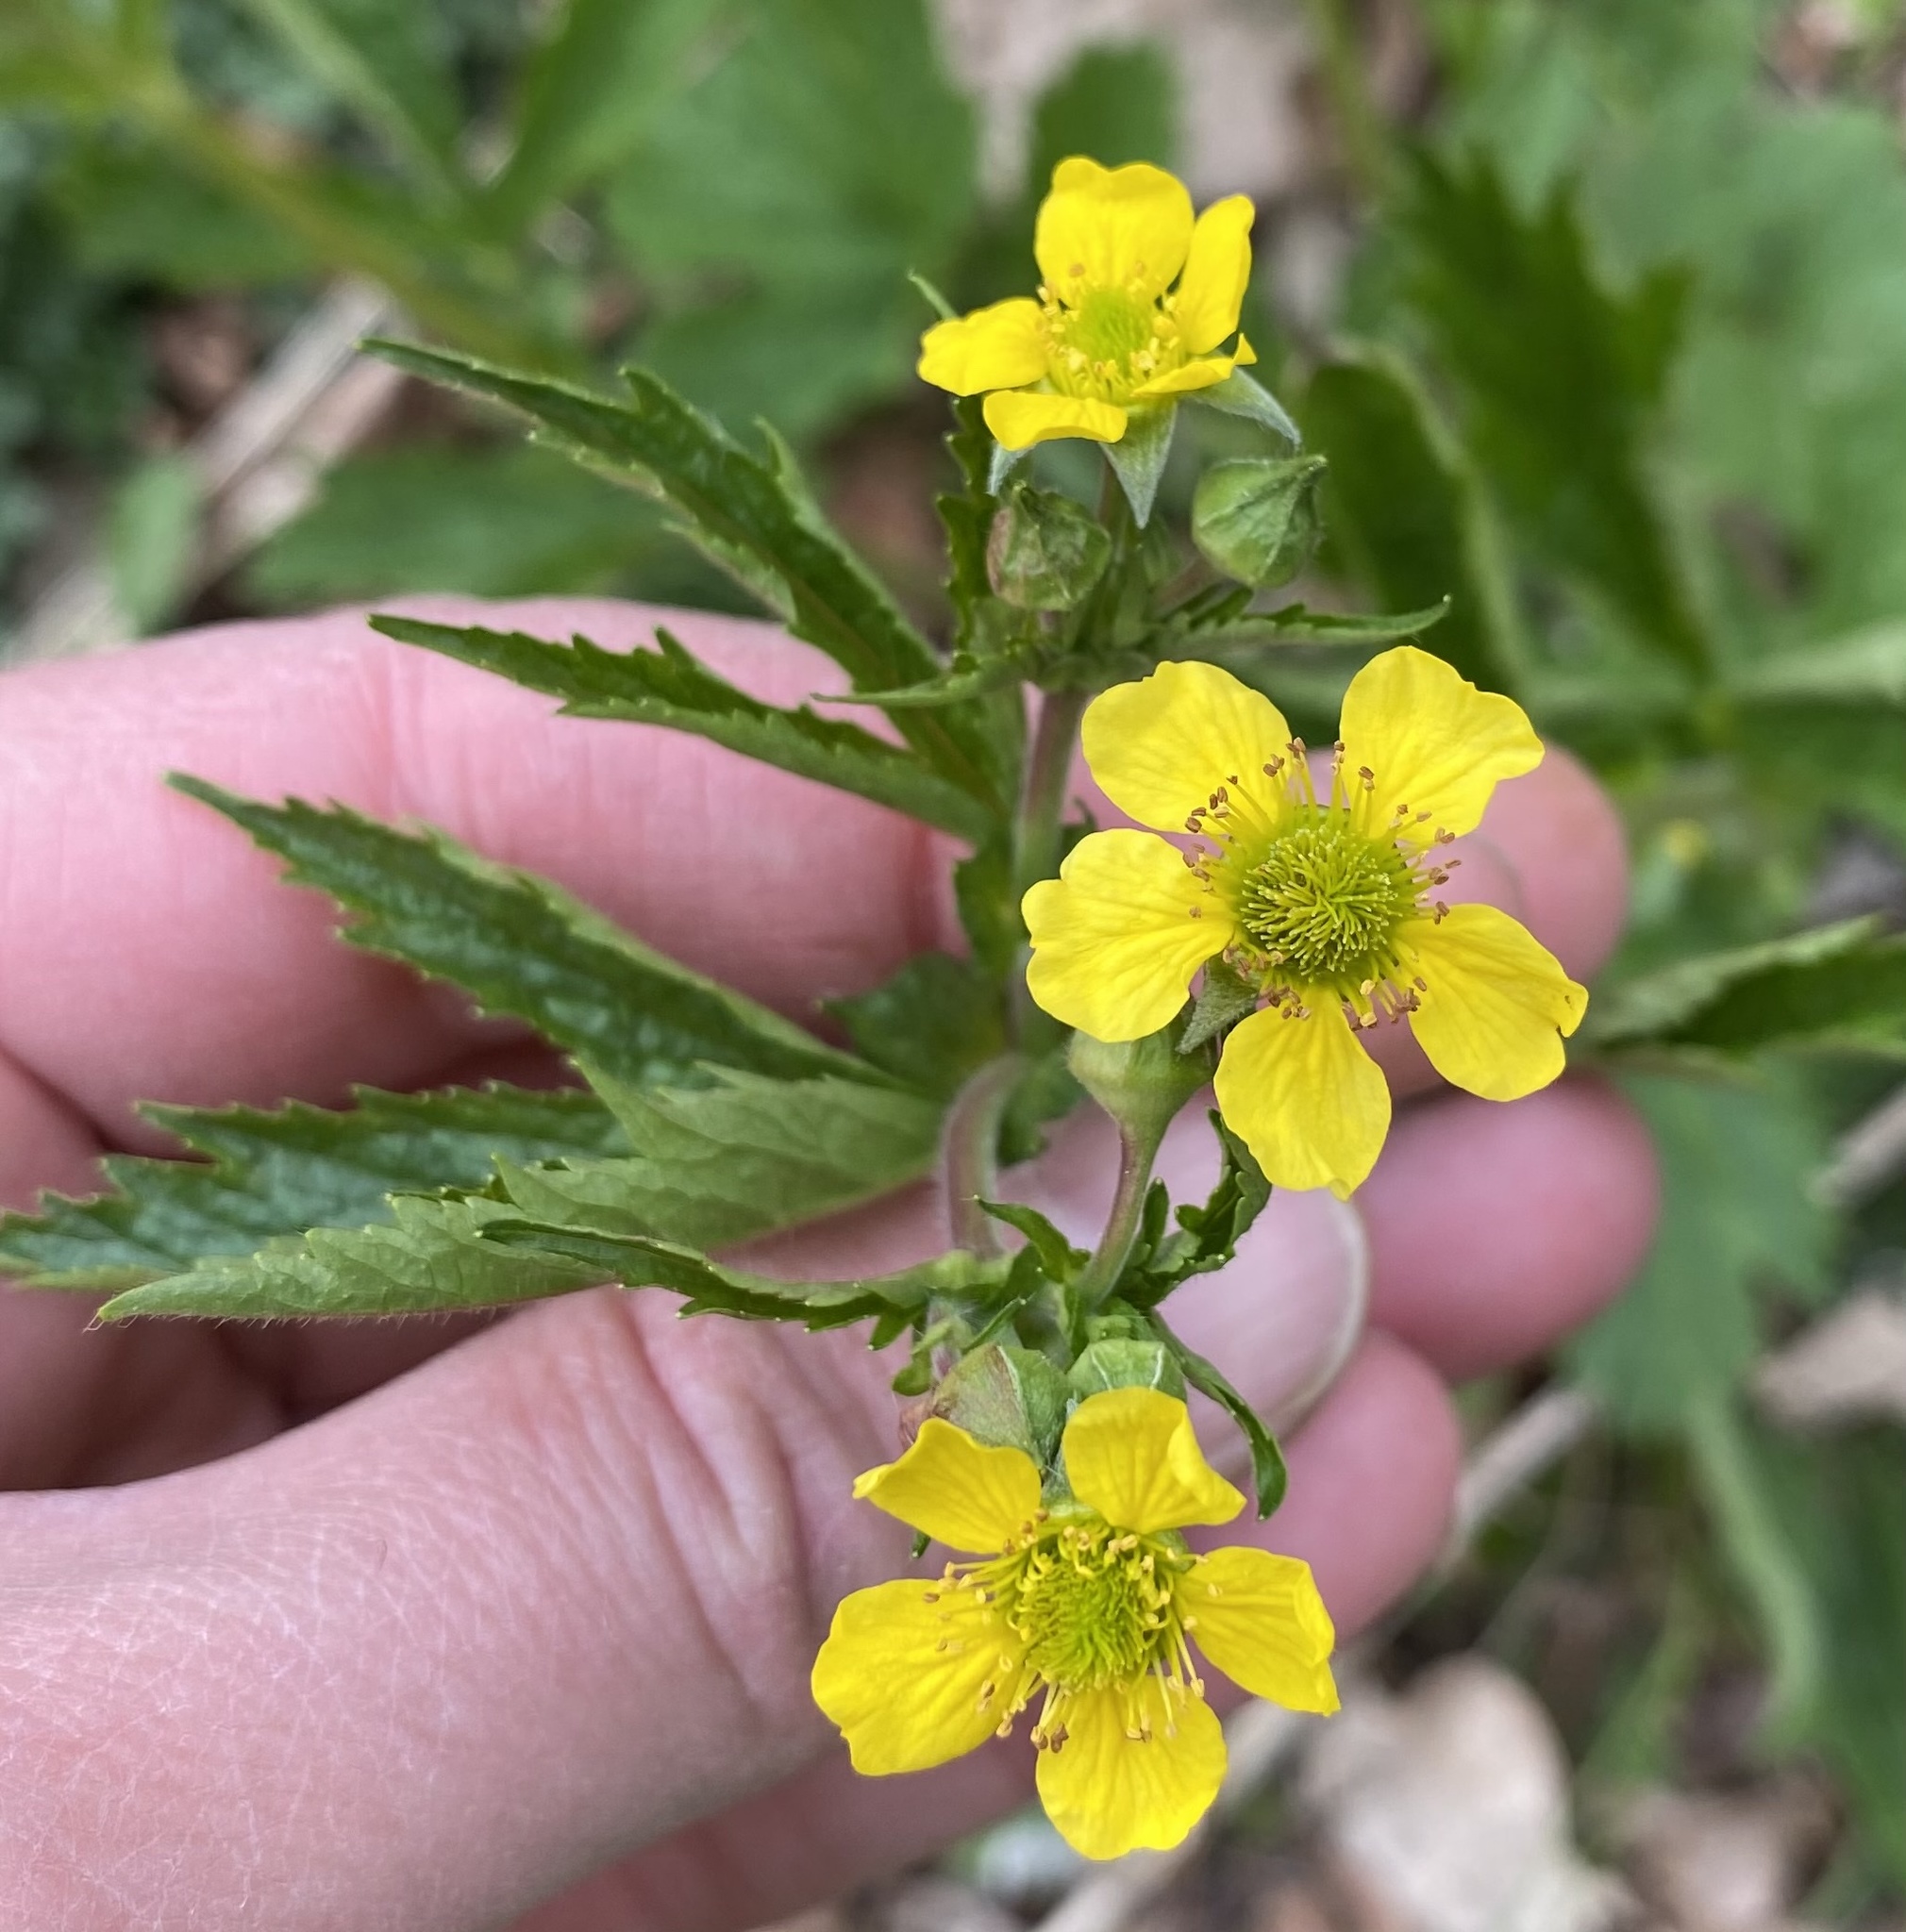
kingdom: Plantae
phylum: Tracheophyta
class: Magnoliopsida
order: Rosales
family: Rosaceae
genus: Geum
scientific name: Geum urbanum
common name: Wood avens
